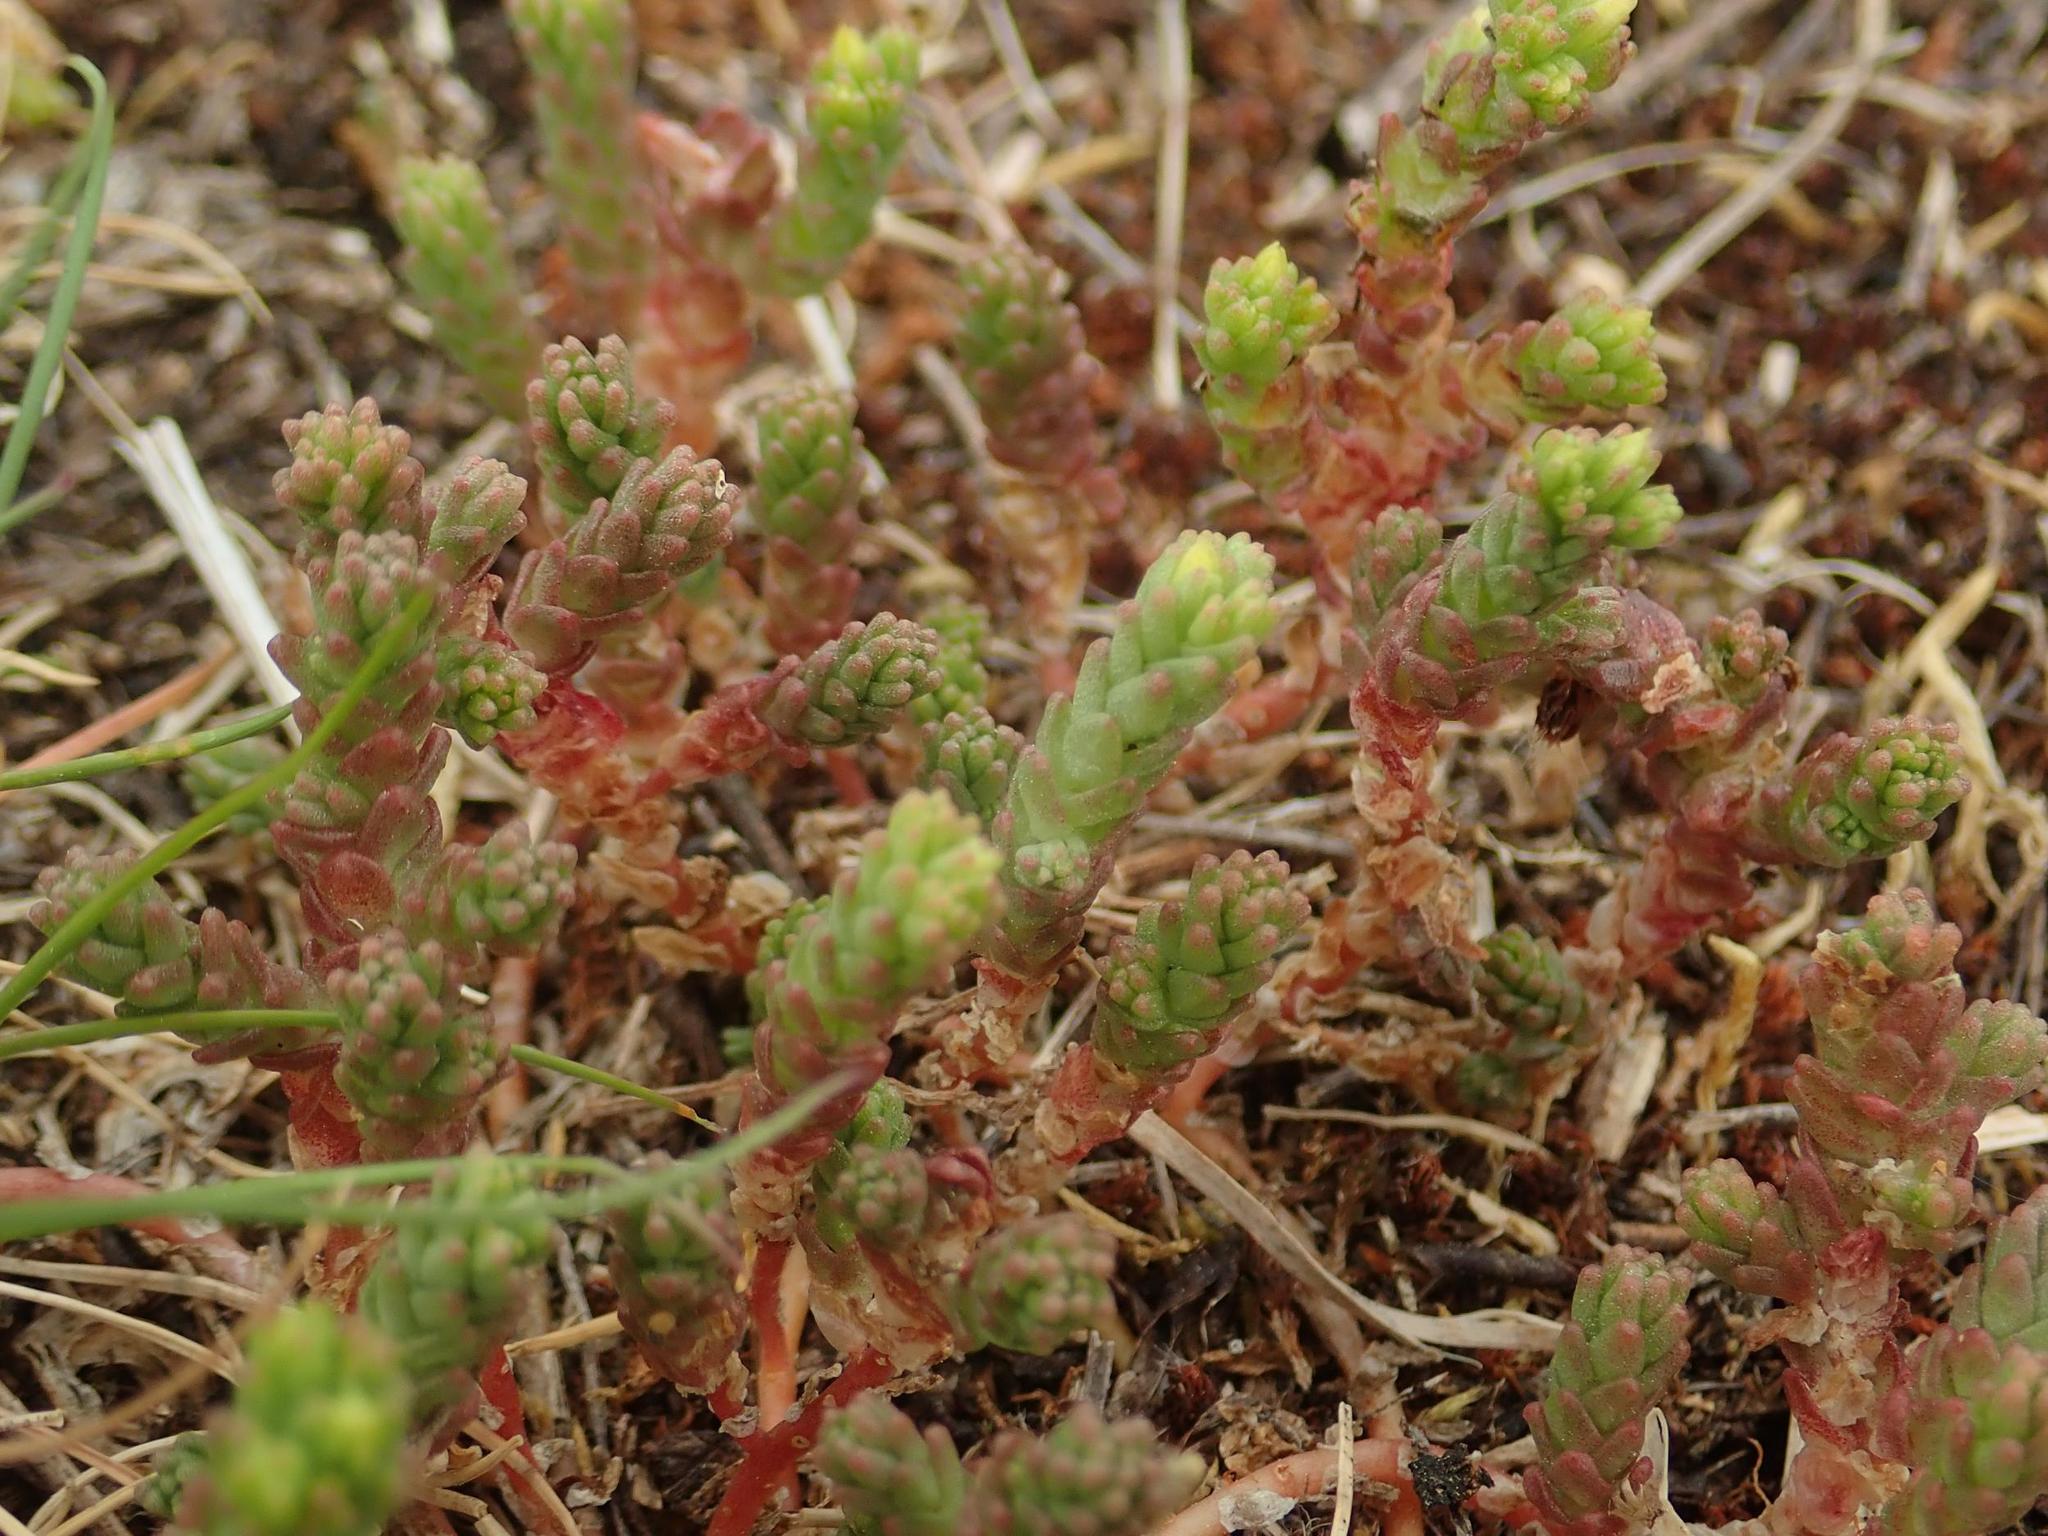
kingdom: Plantae
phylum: Tracheophyta
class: Magnoliopsida
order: Saxifragales
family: Crassulaceae
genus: Sedum
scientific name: Sedum acre
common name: Biting stonecrop
